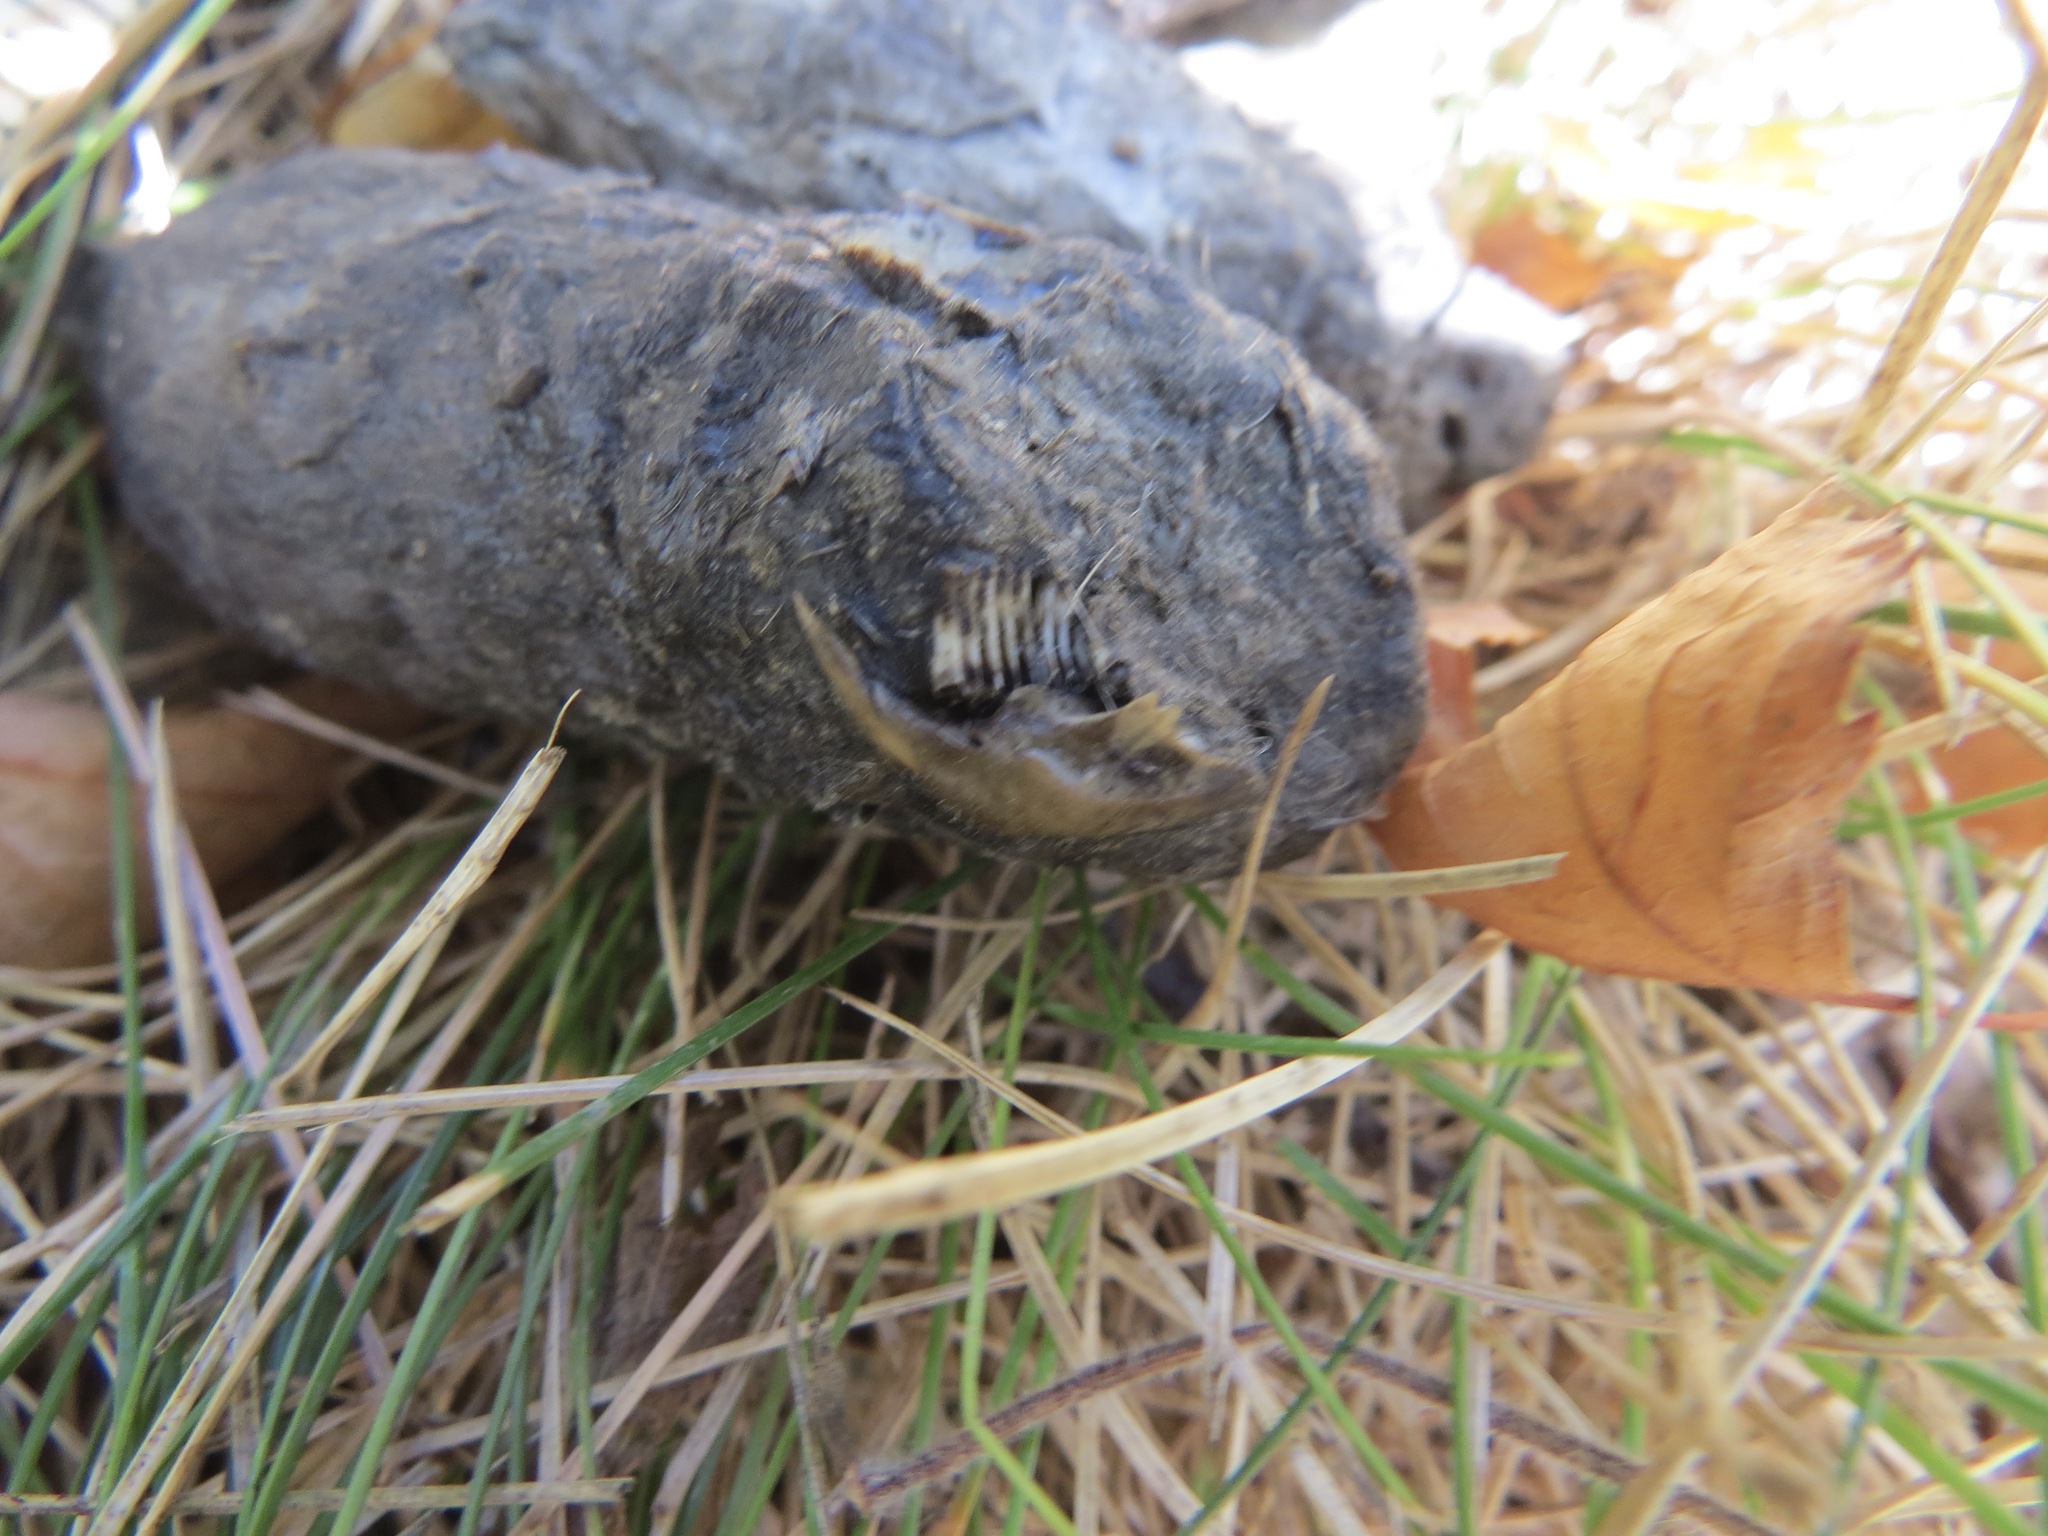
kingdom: Animalia
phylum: Chordata
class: Mammalia
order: Carnivora
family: Felidae
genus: Lynx
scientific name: Lynx rufus
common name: Bobcat
